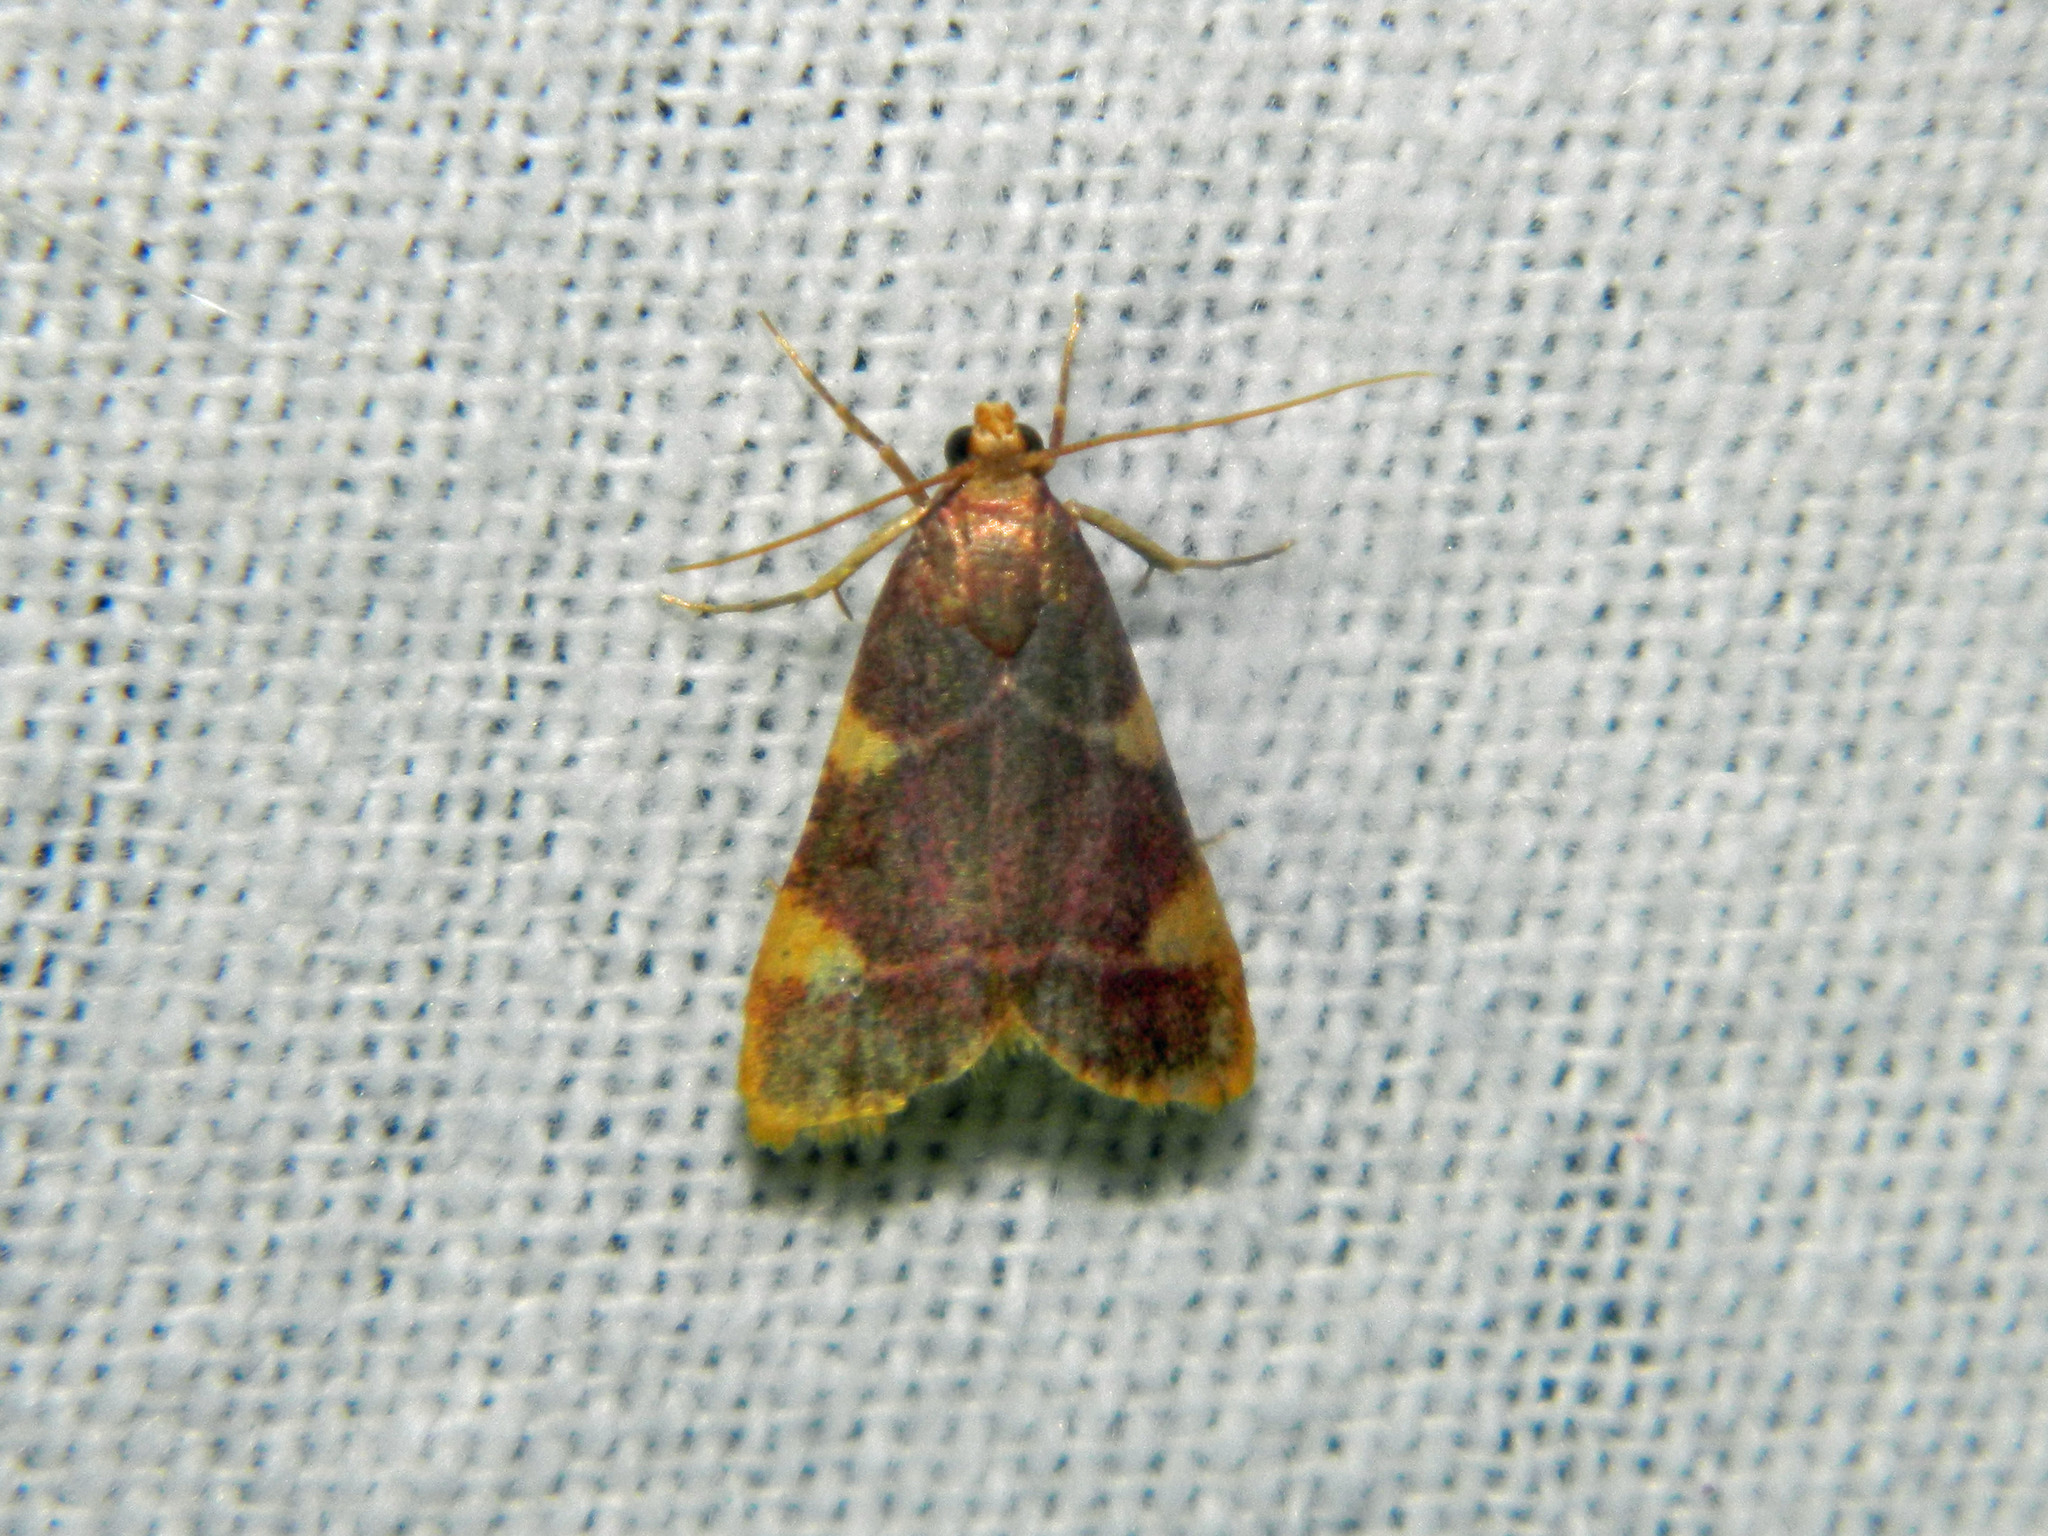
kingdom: Animalia
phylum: Arthropoda
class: Insecta
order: Lepidoptera
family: Pyralidae
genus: Hypsopygia
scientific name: Hypsopygia costalis
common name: Gold triangle
